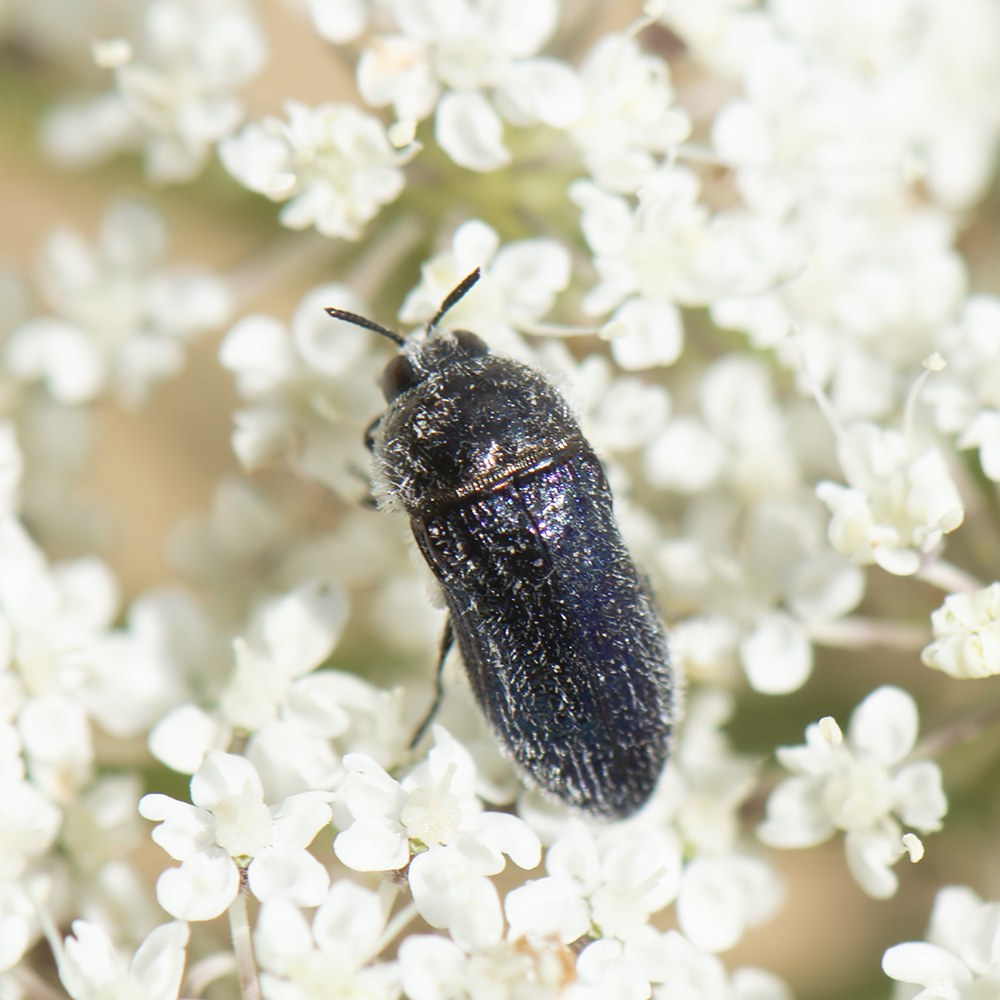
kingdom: Animalia
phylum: Arthropoda
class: Insecta
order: Coleoptera
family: Buprestidae
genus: Acmaeoderella
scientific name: Acmaeoderella villosula
